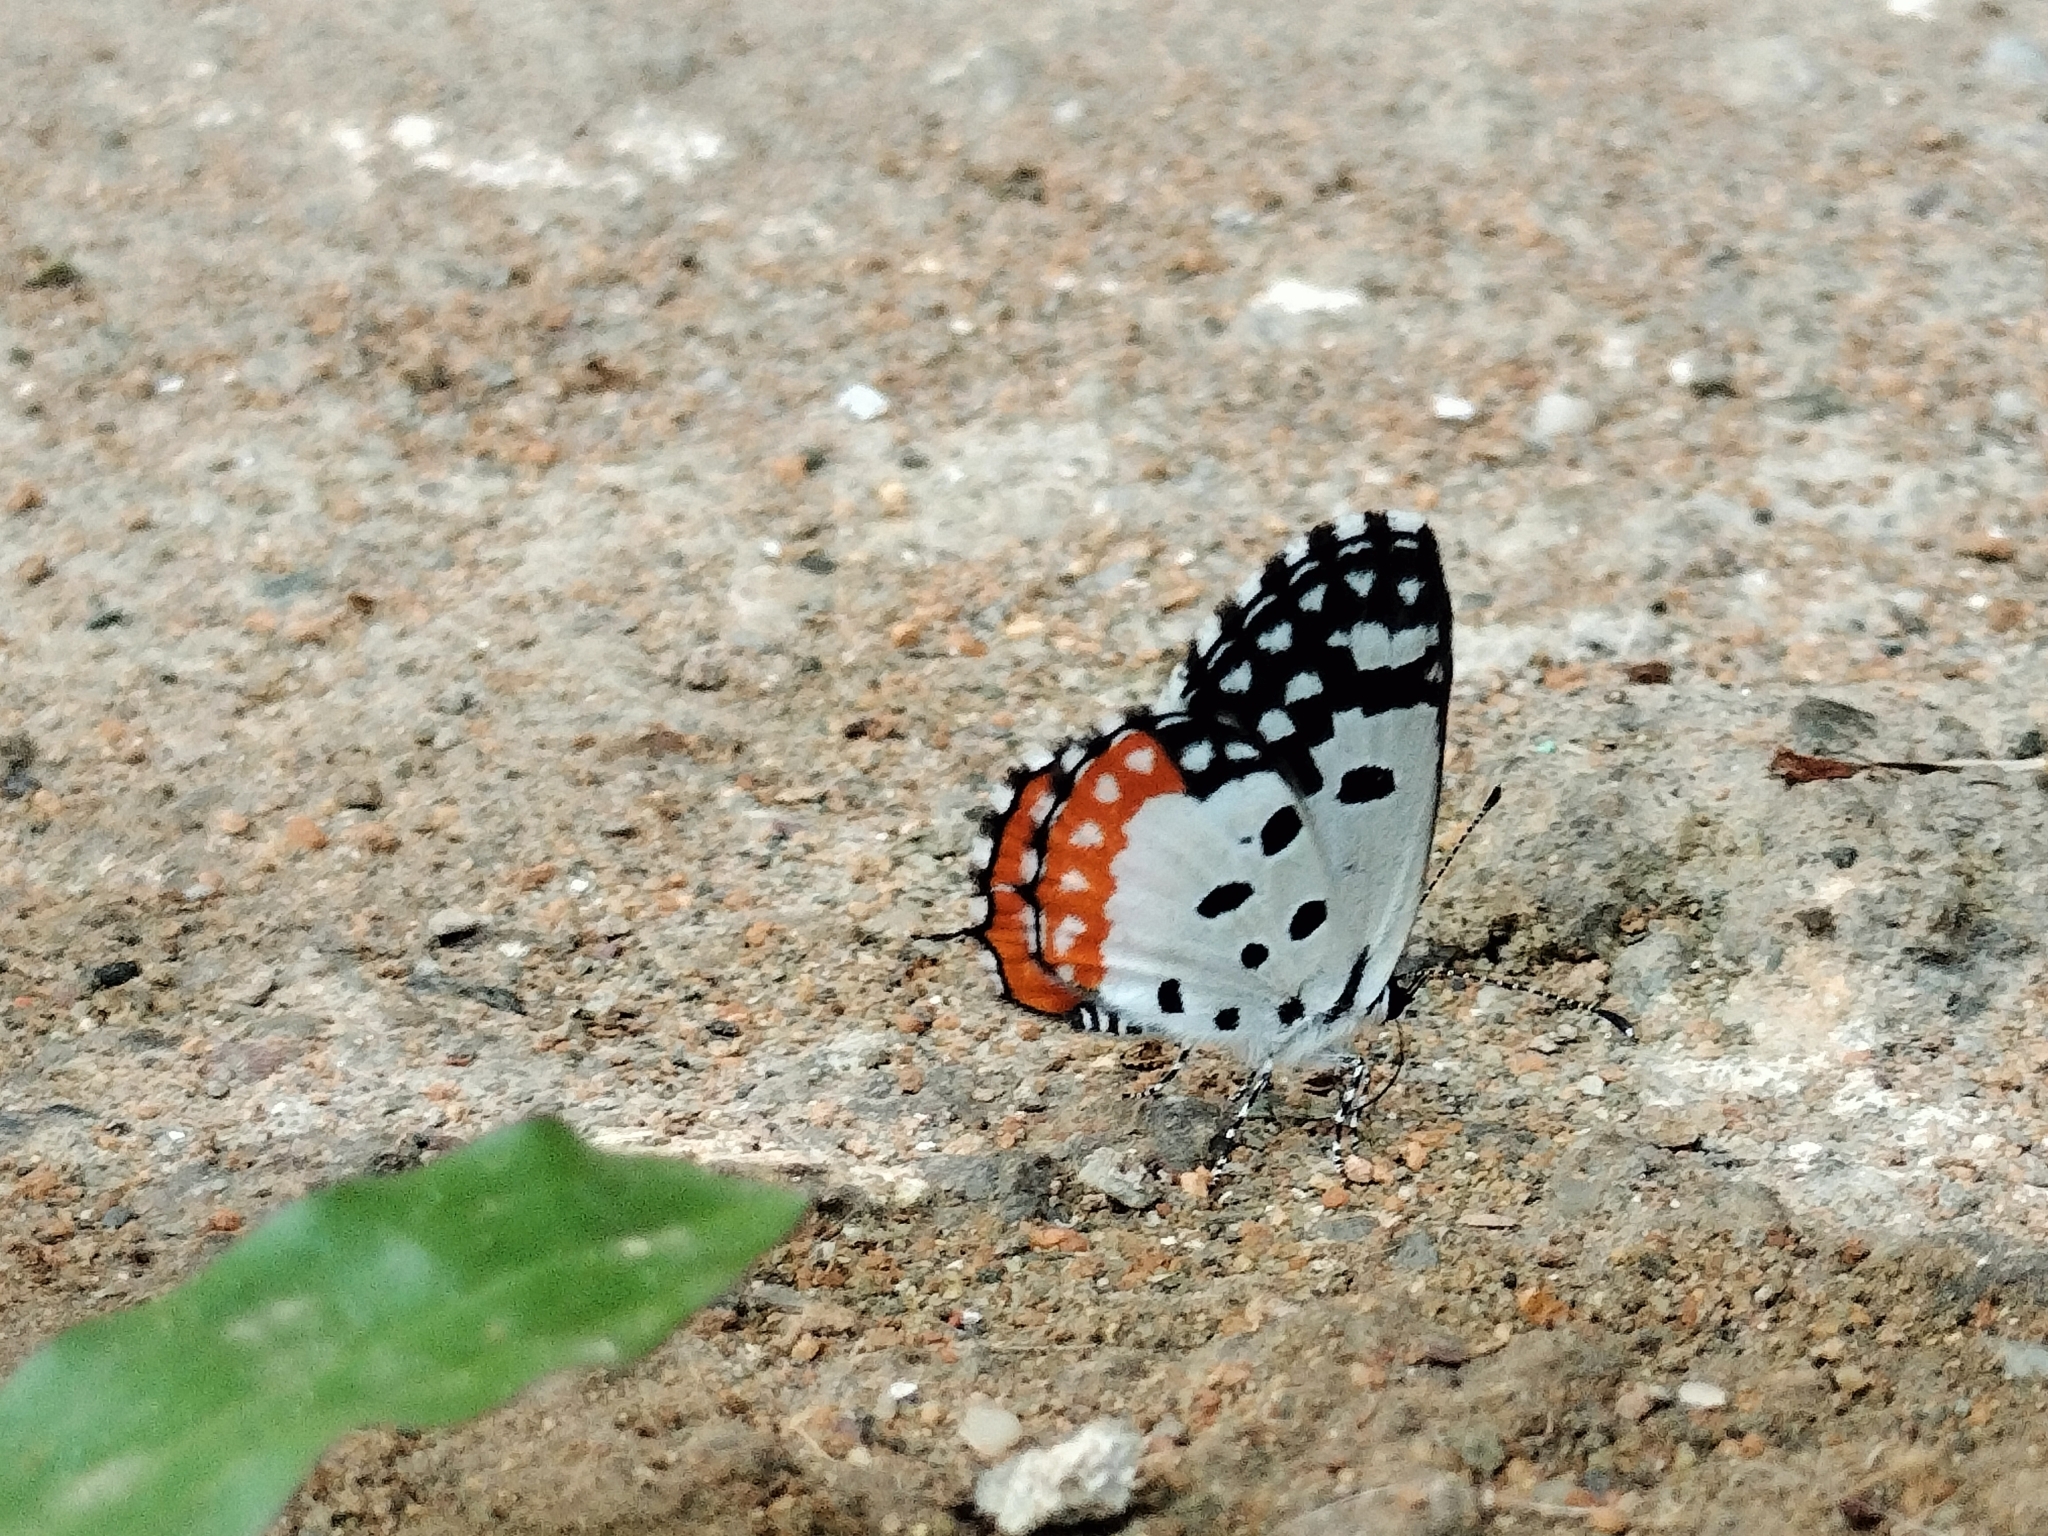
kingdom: Animalia
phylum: Arthropoda
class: Insecta
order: Lepidoptera
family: Lycaenidae
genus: Talicada
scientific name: Talicada nyseus
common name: Red pierrot
